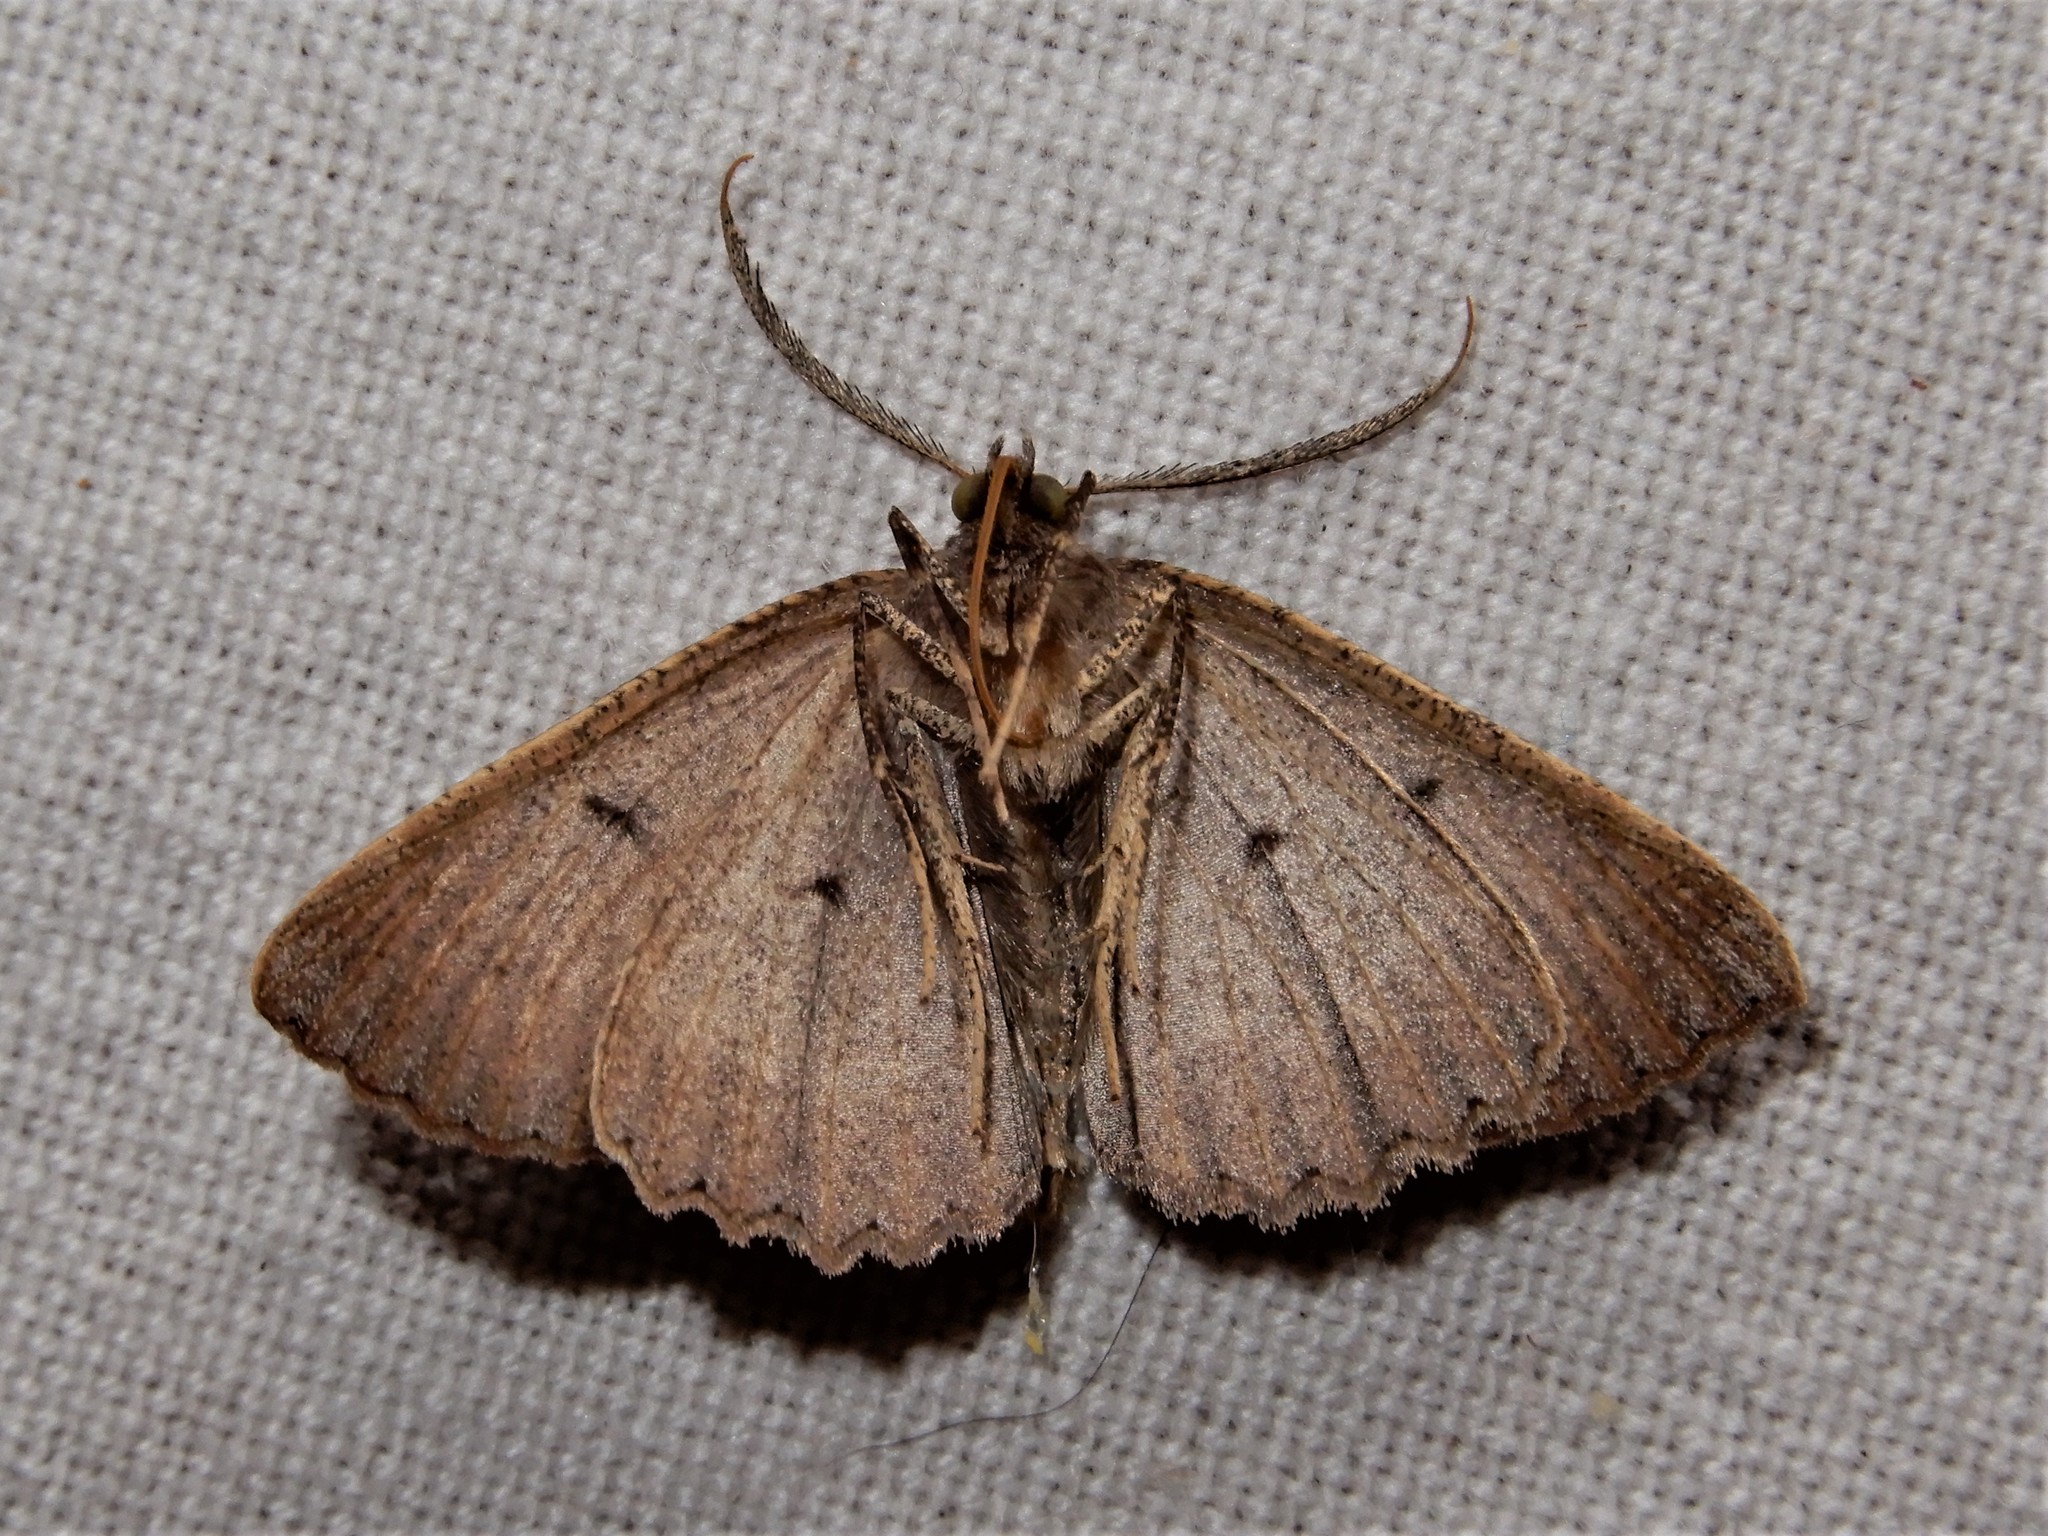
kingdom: Animalia
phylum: Arthropoda
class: Insecta
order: Lepidoptera
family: Geometridae
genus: Cleora
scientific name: Cleora scriptaria
